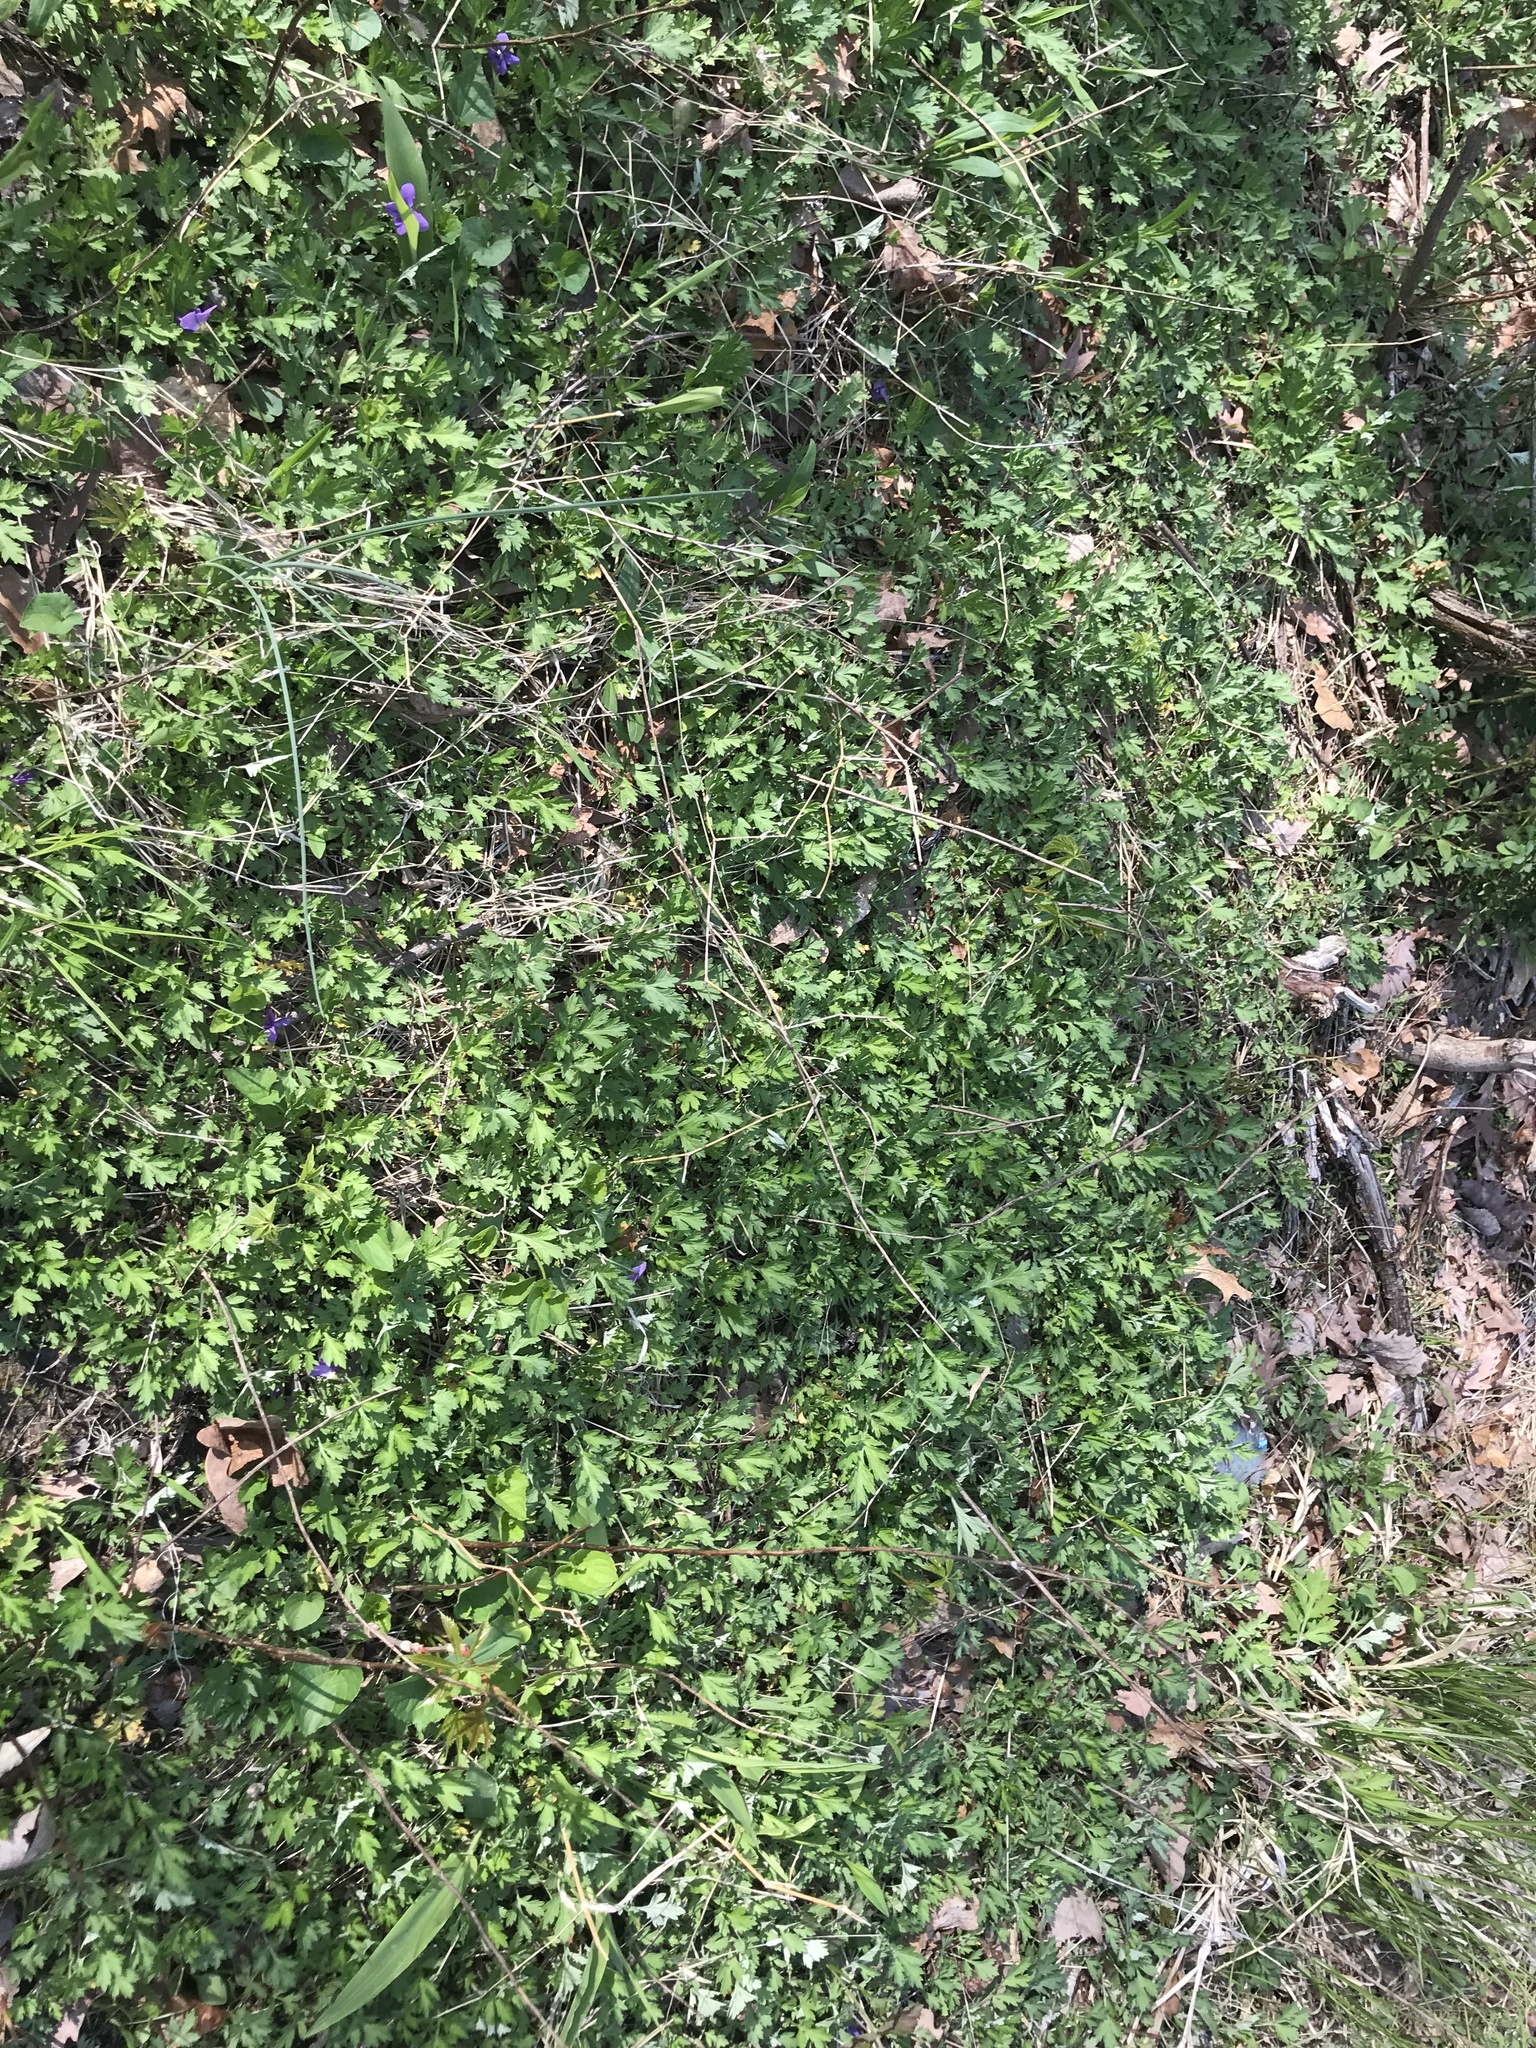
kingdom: Plantae
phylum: Tracheophyta
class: Magnoliopsida
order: Asterales
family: Asteraceae
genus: Artemisia
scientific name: Artemisia vulgaris
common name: Mugwort
